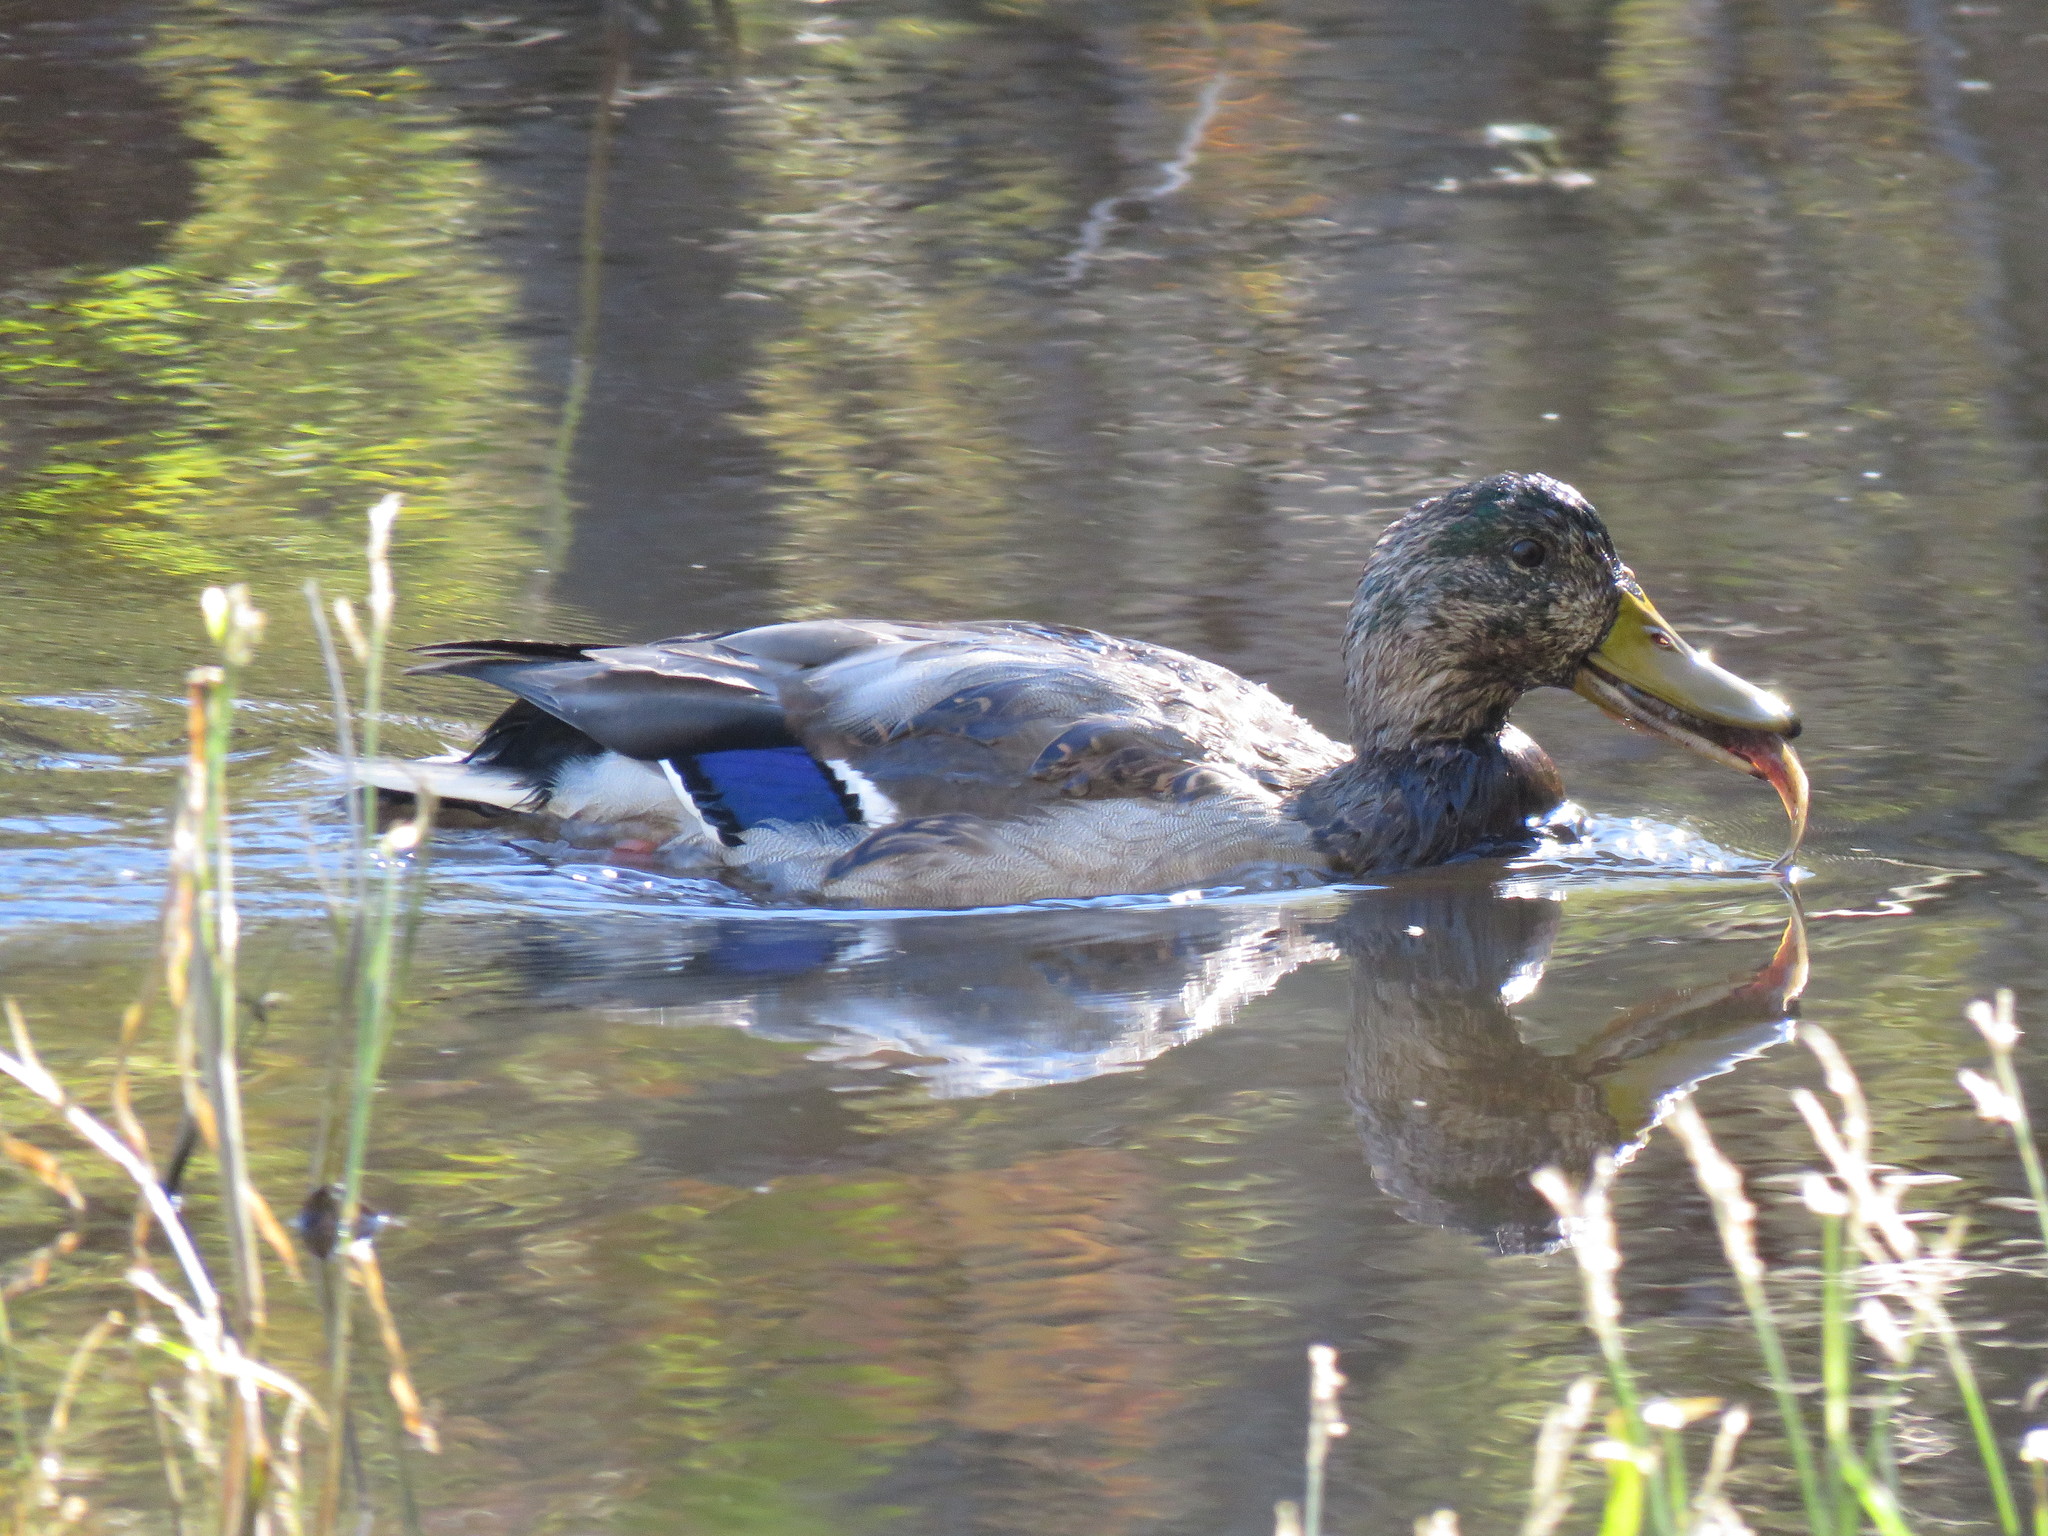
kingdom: Animalia
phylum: Chordata
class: Aves
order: Anseriformes
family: Anatidae
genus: Anas
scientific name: Anas platyrhynchos
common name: Mallard
